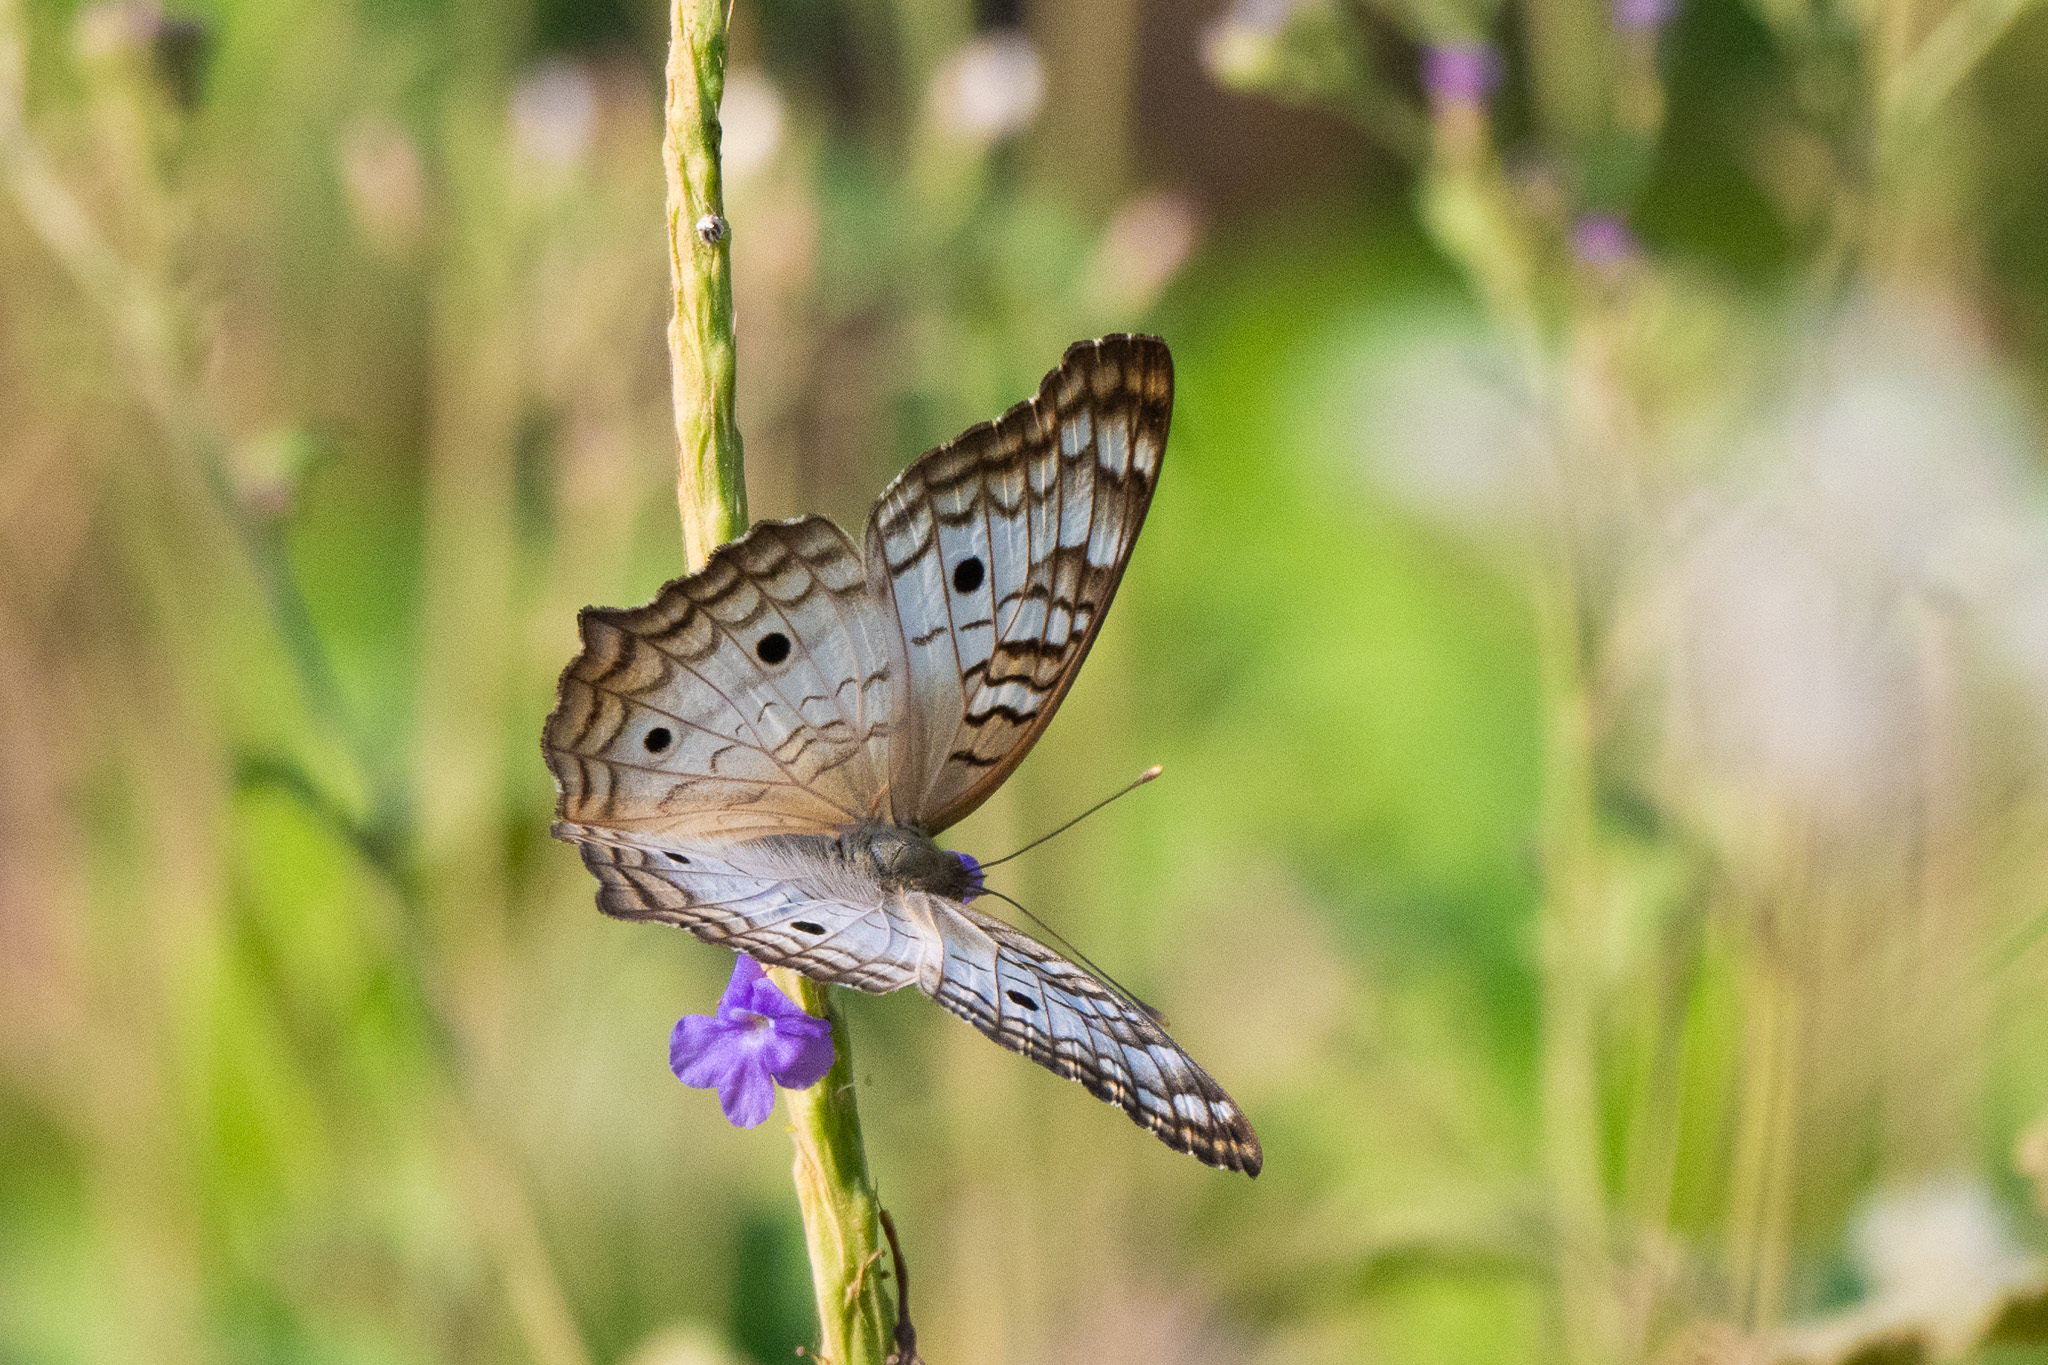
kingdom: Animalia
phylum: Arthropoda
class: Insecta
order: Lepidoptera
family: Nymphalidae
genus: Anartia
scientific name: Anartia jatrophae
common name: White peacock
